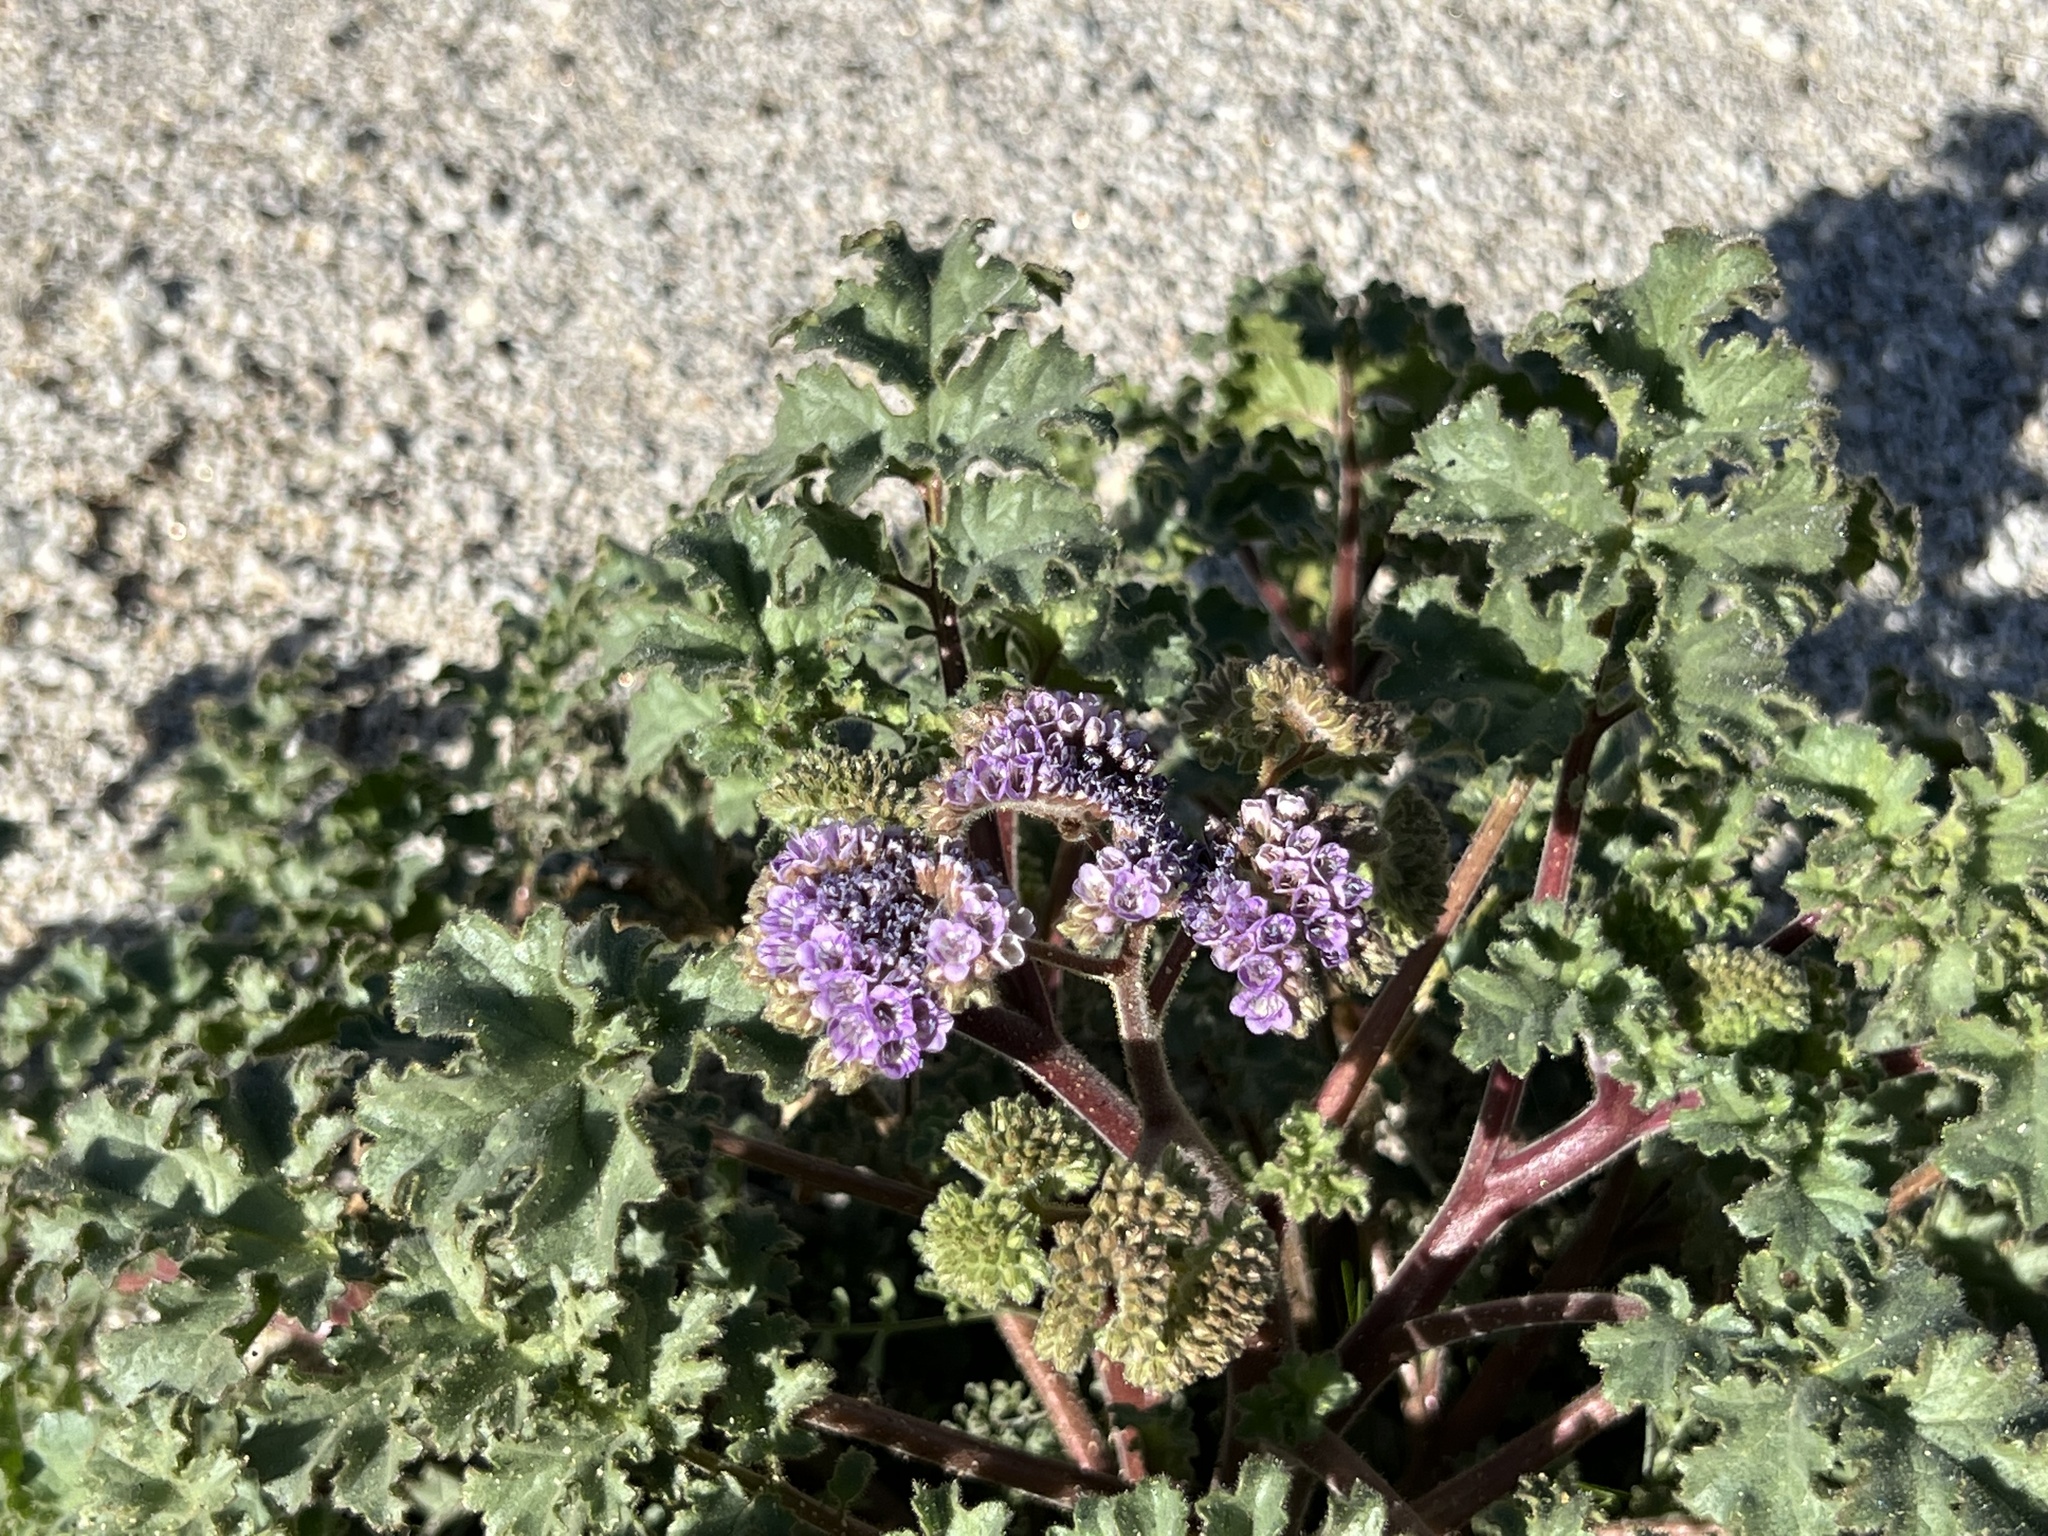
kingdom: Plantae
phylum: Tracheophyta
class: Magnoliopsida
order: Boraginales
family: Hydrophyllaceae
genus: Phacelia
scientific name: Phacelia pedicellata
